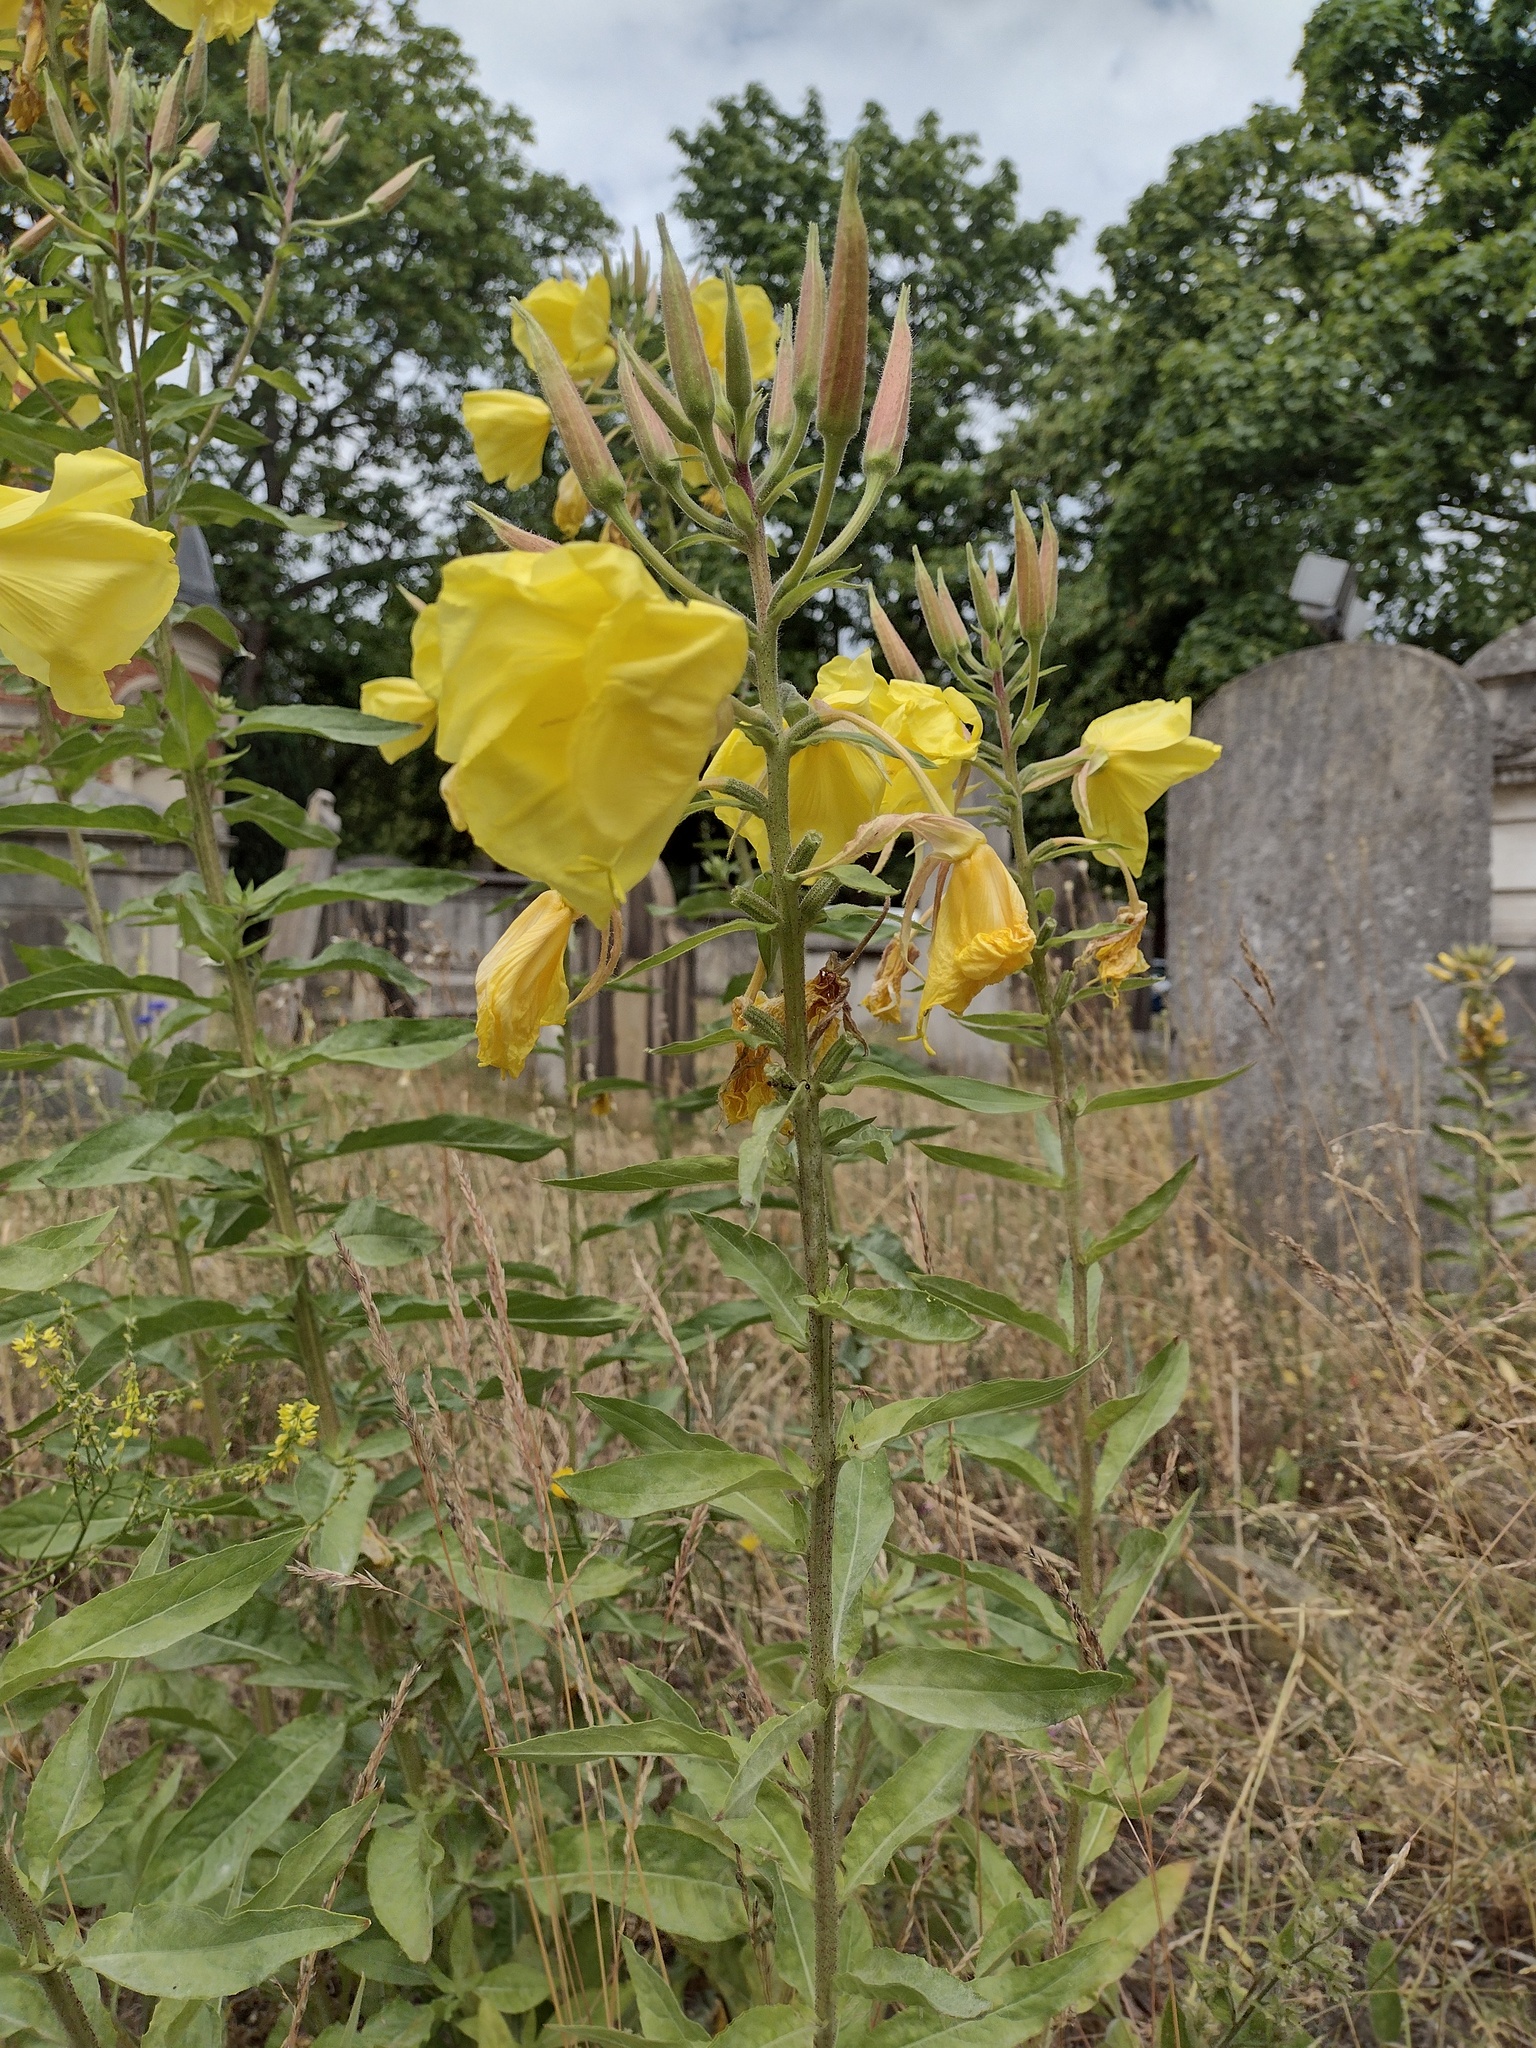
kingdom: Plantae
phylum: Tracheophyta
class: Magnoliopsida
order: Myrtales
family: Onagraceae
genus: Oenothera
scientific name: Oenothera glazioviana
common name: Large-flowered evening-primrose
